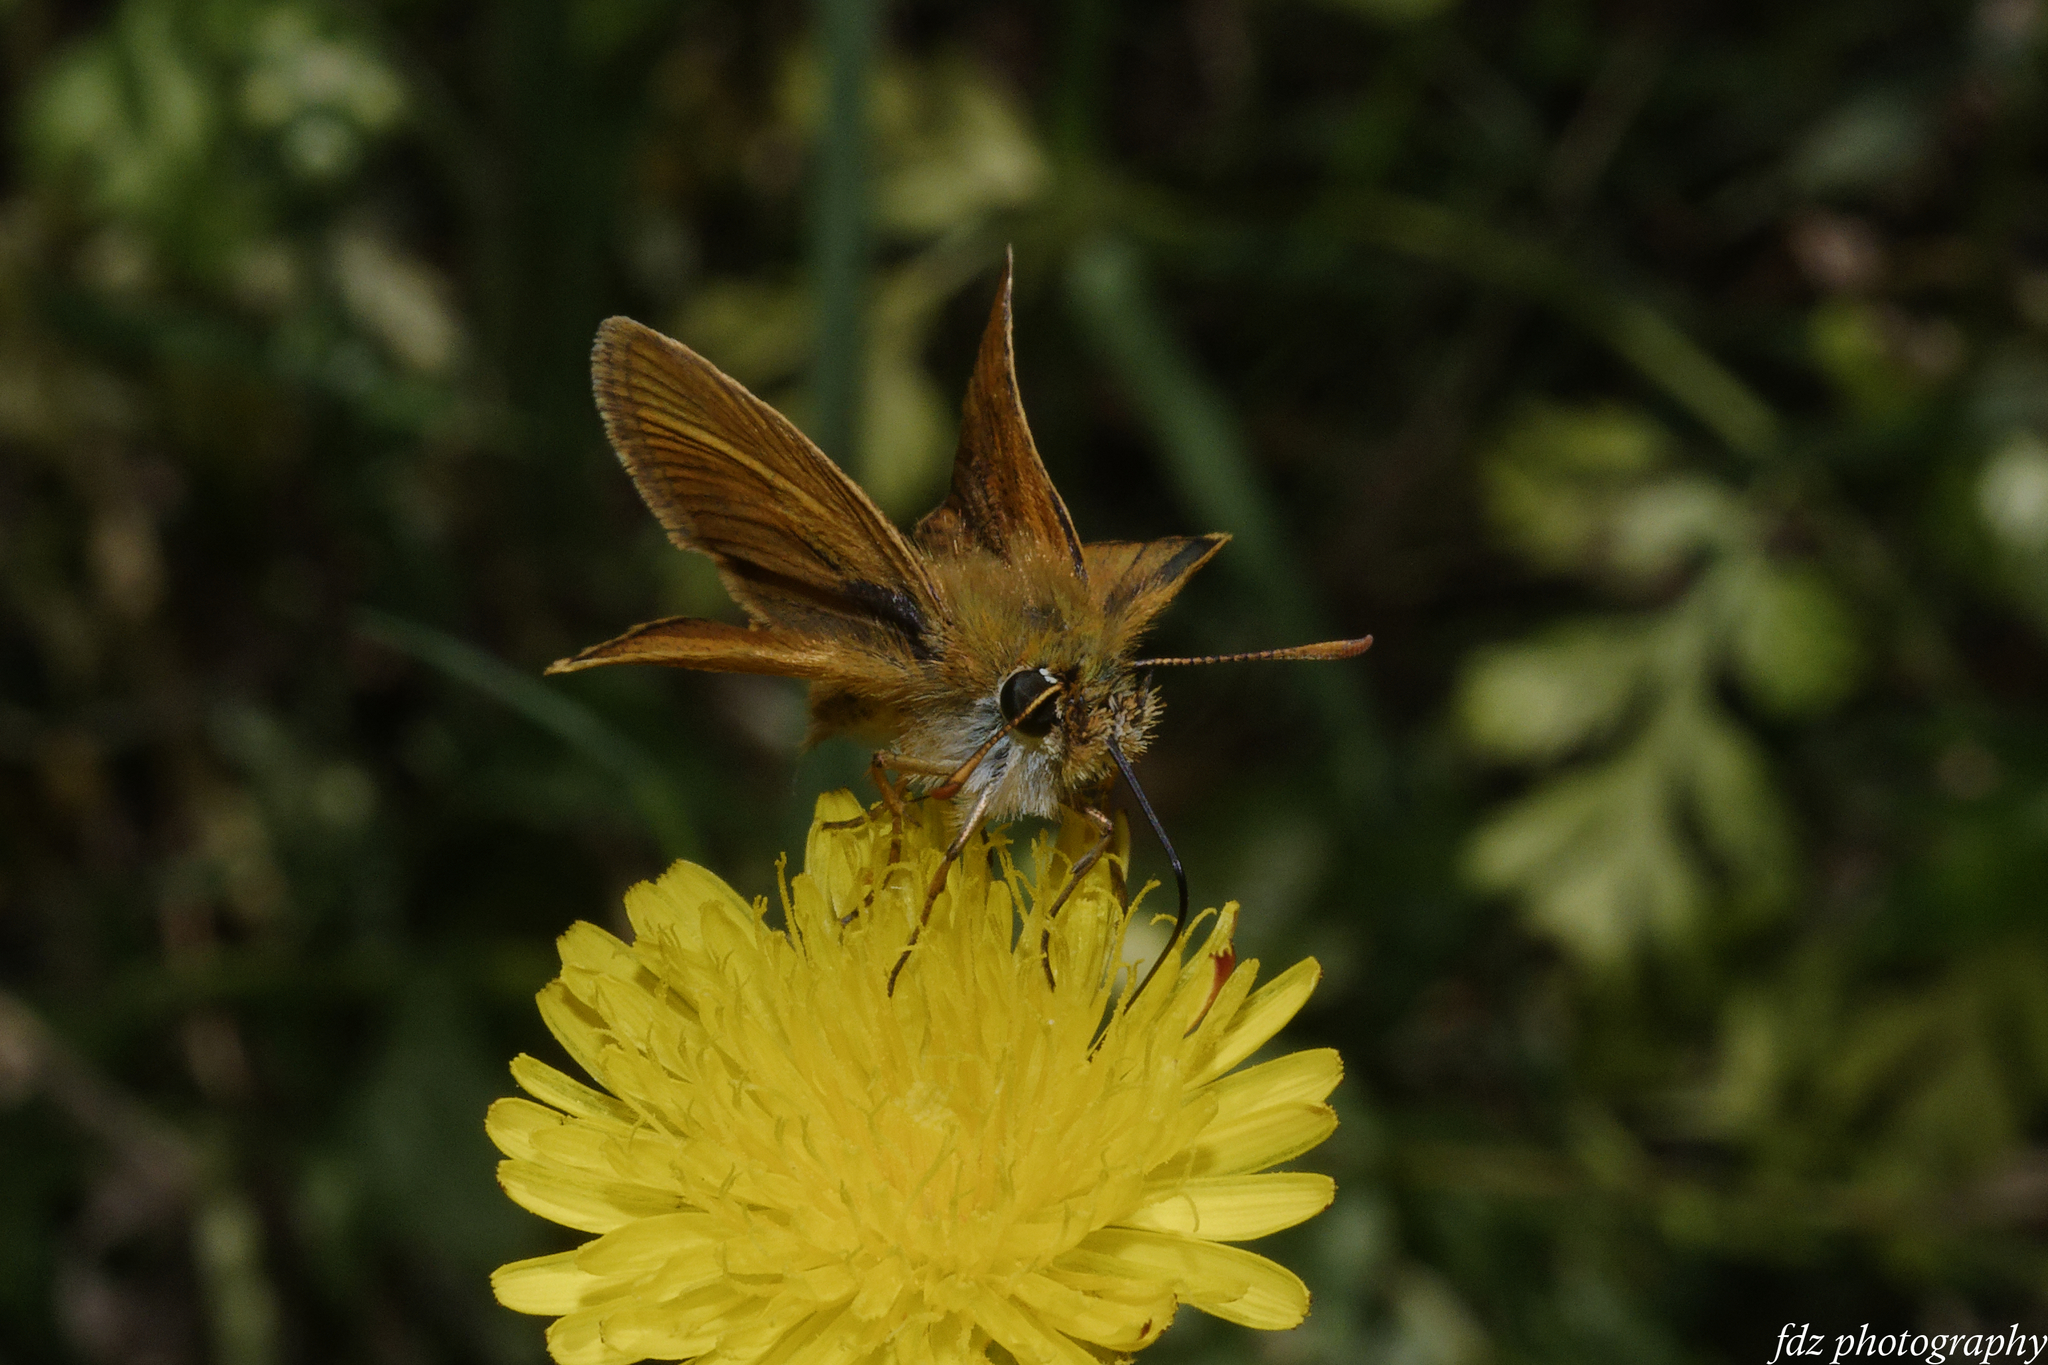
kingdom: Animalia
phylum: Arthropoda
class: Insecta
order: Lepidoptera
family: Hesperiidae
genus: Thymelicus
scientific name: Thymelicus acteon
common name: Lulworth skipper
